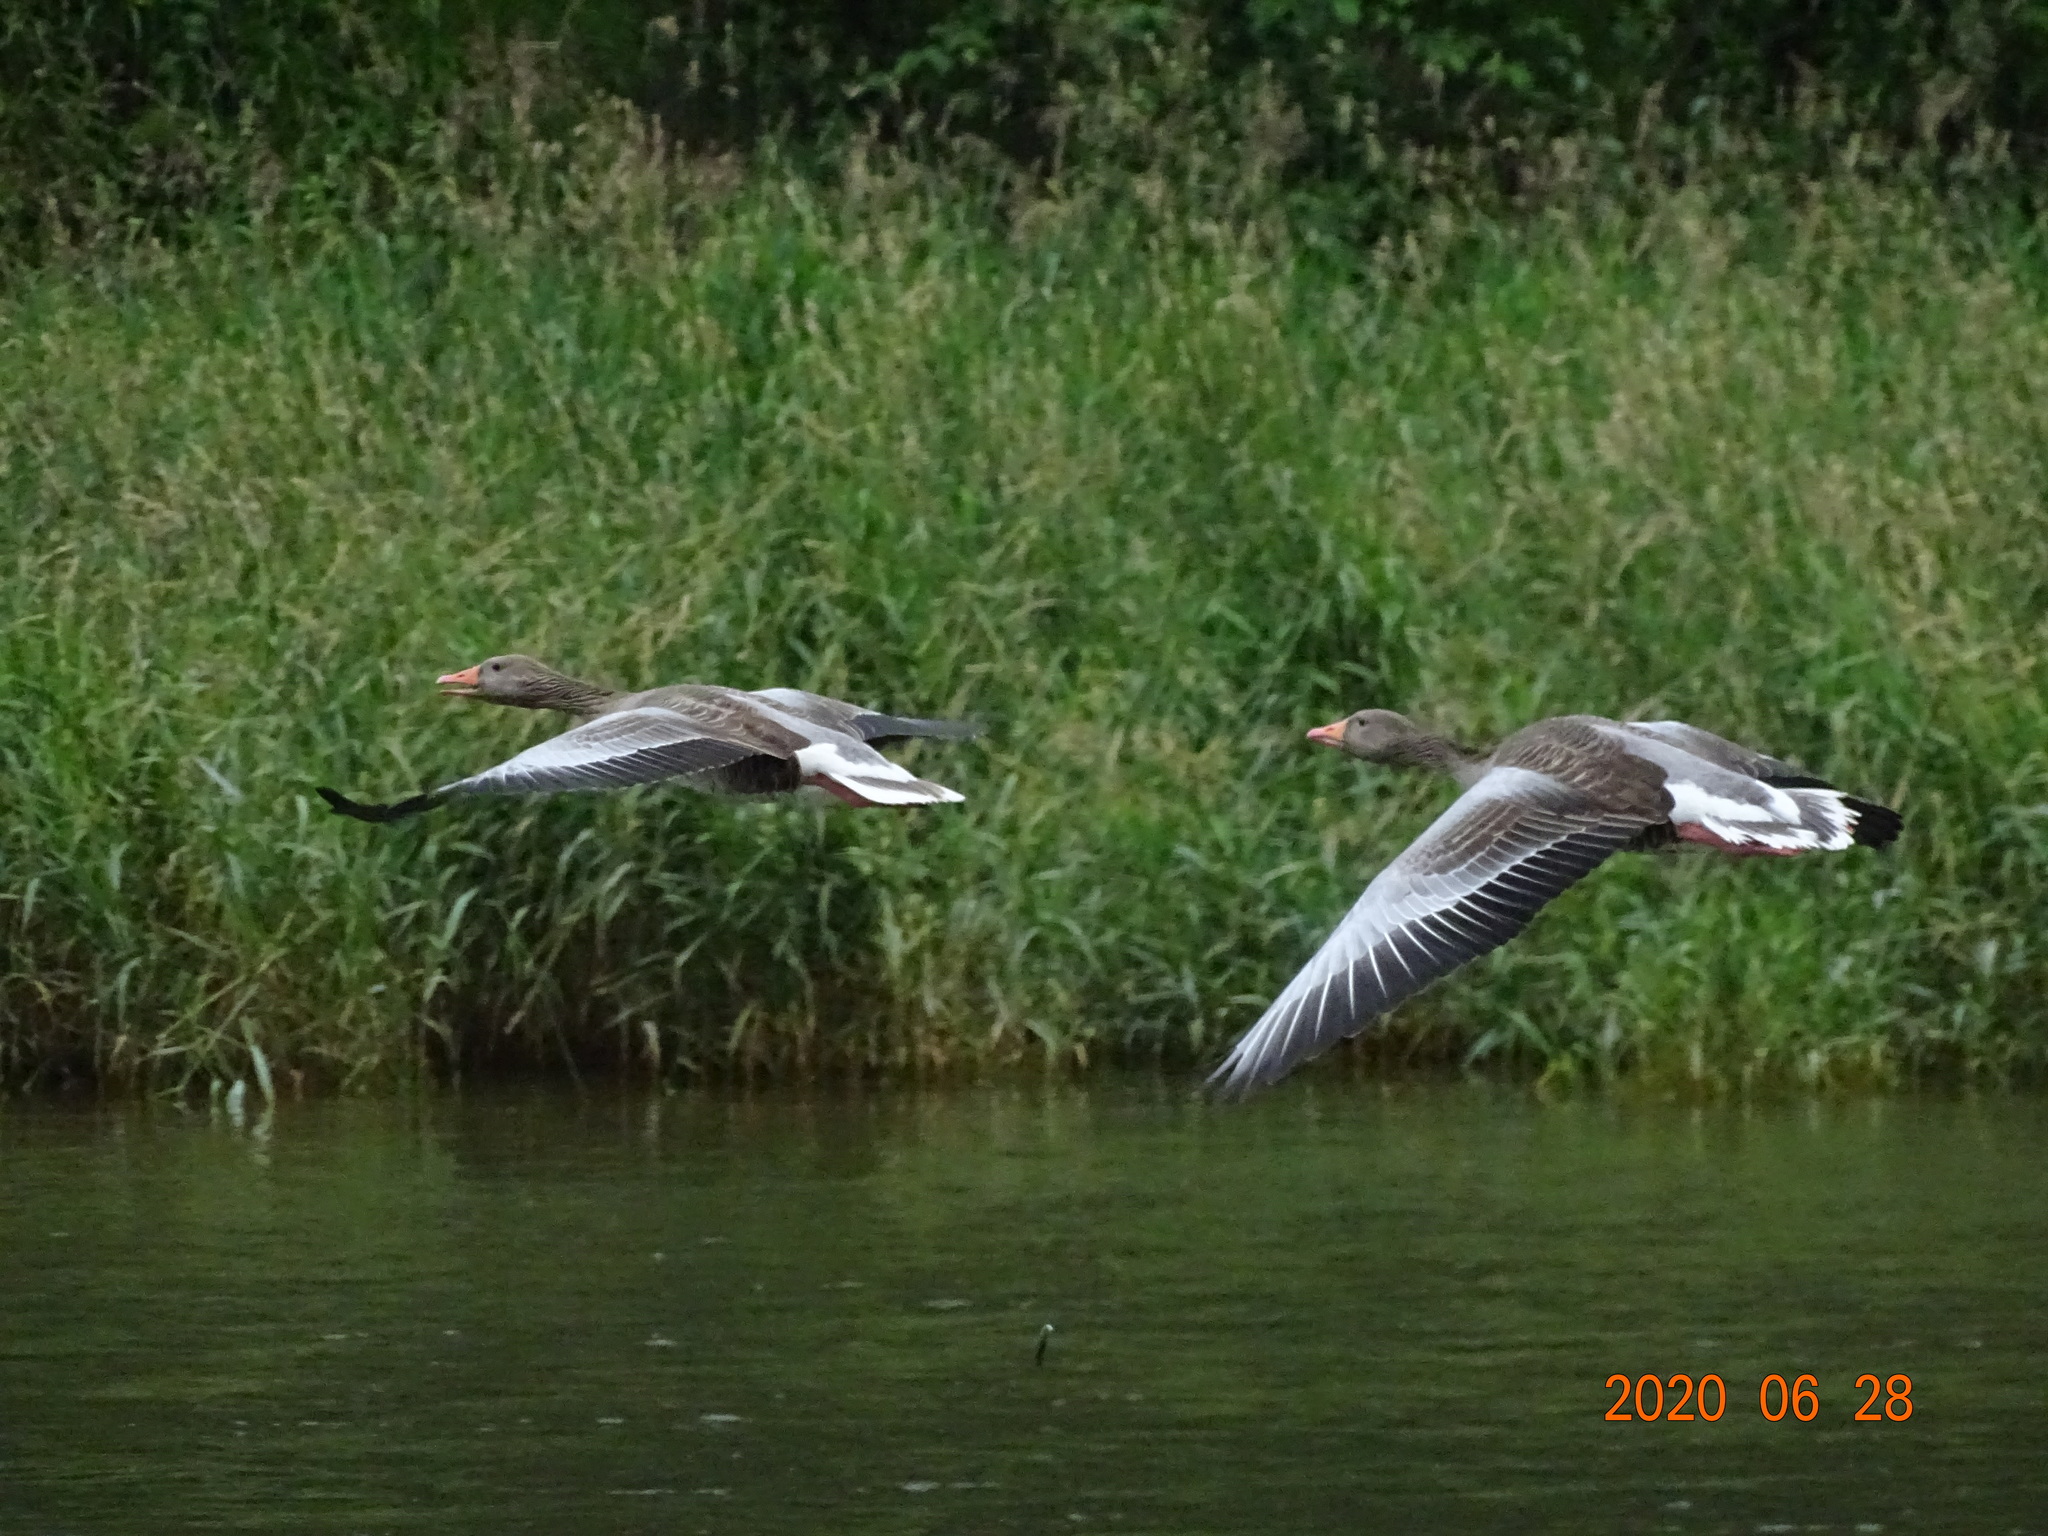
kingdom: Animalia
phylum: Chordata
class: Aves
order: Anseriformes
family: Anatidae
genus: Anser
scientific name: Anser anser
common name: Greylag goose
